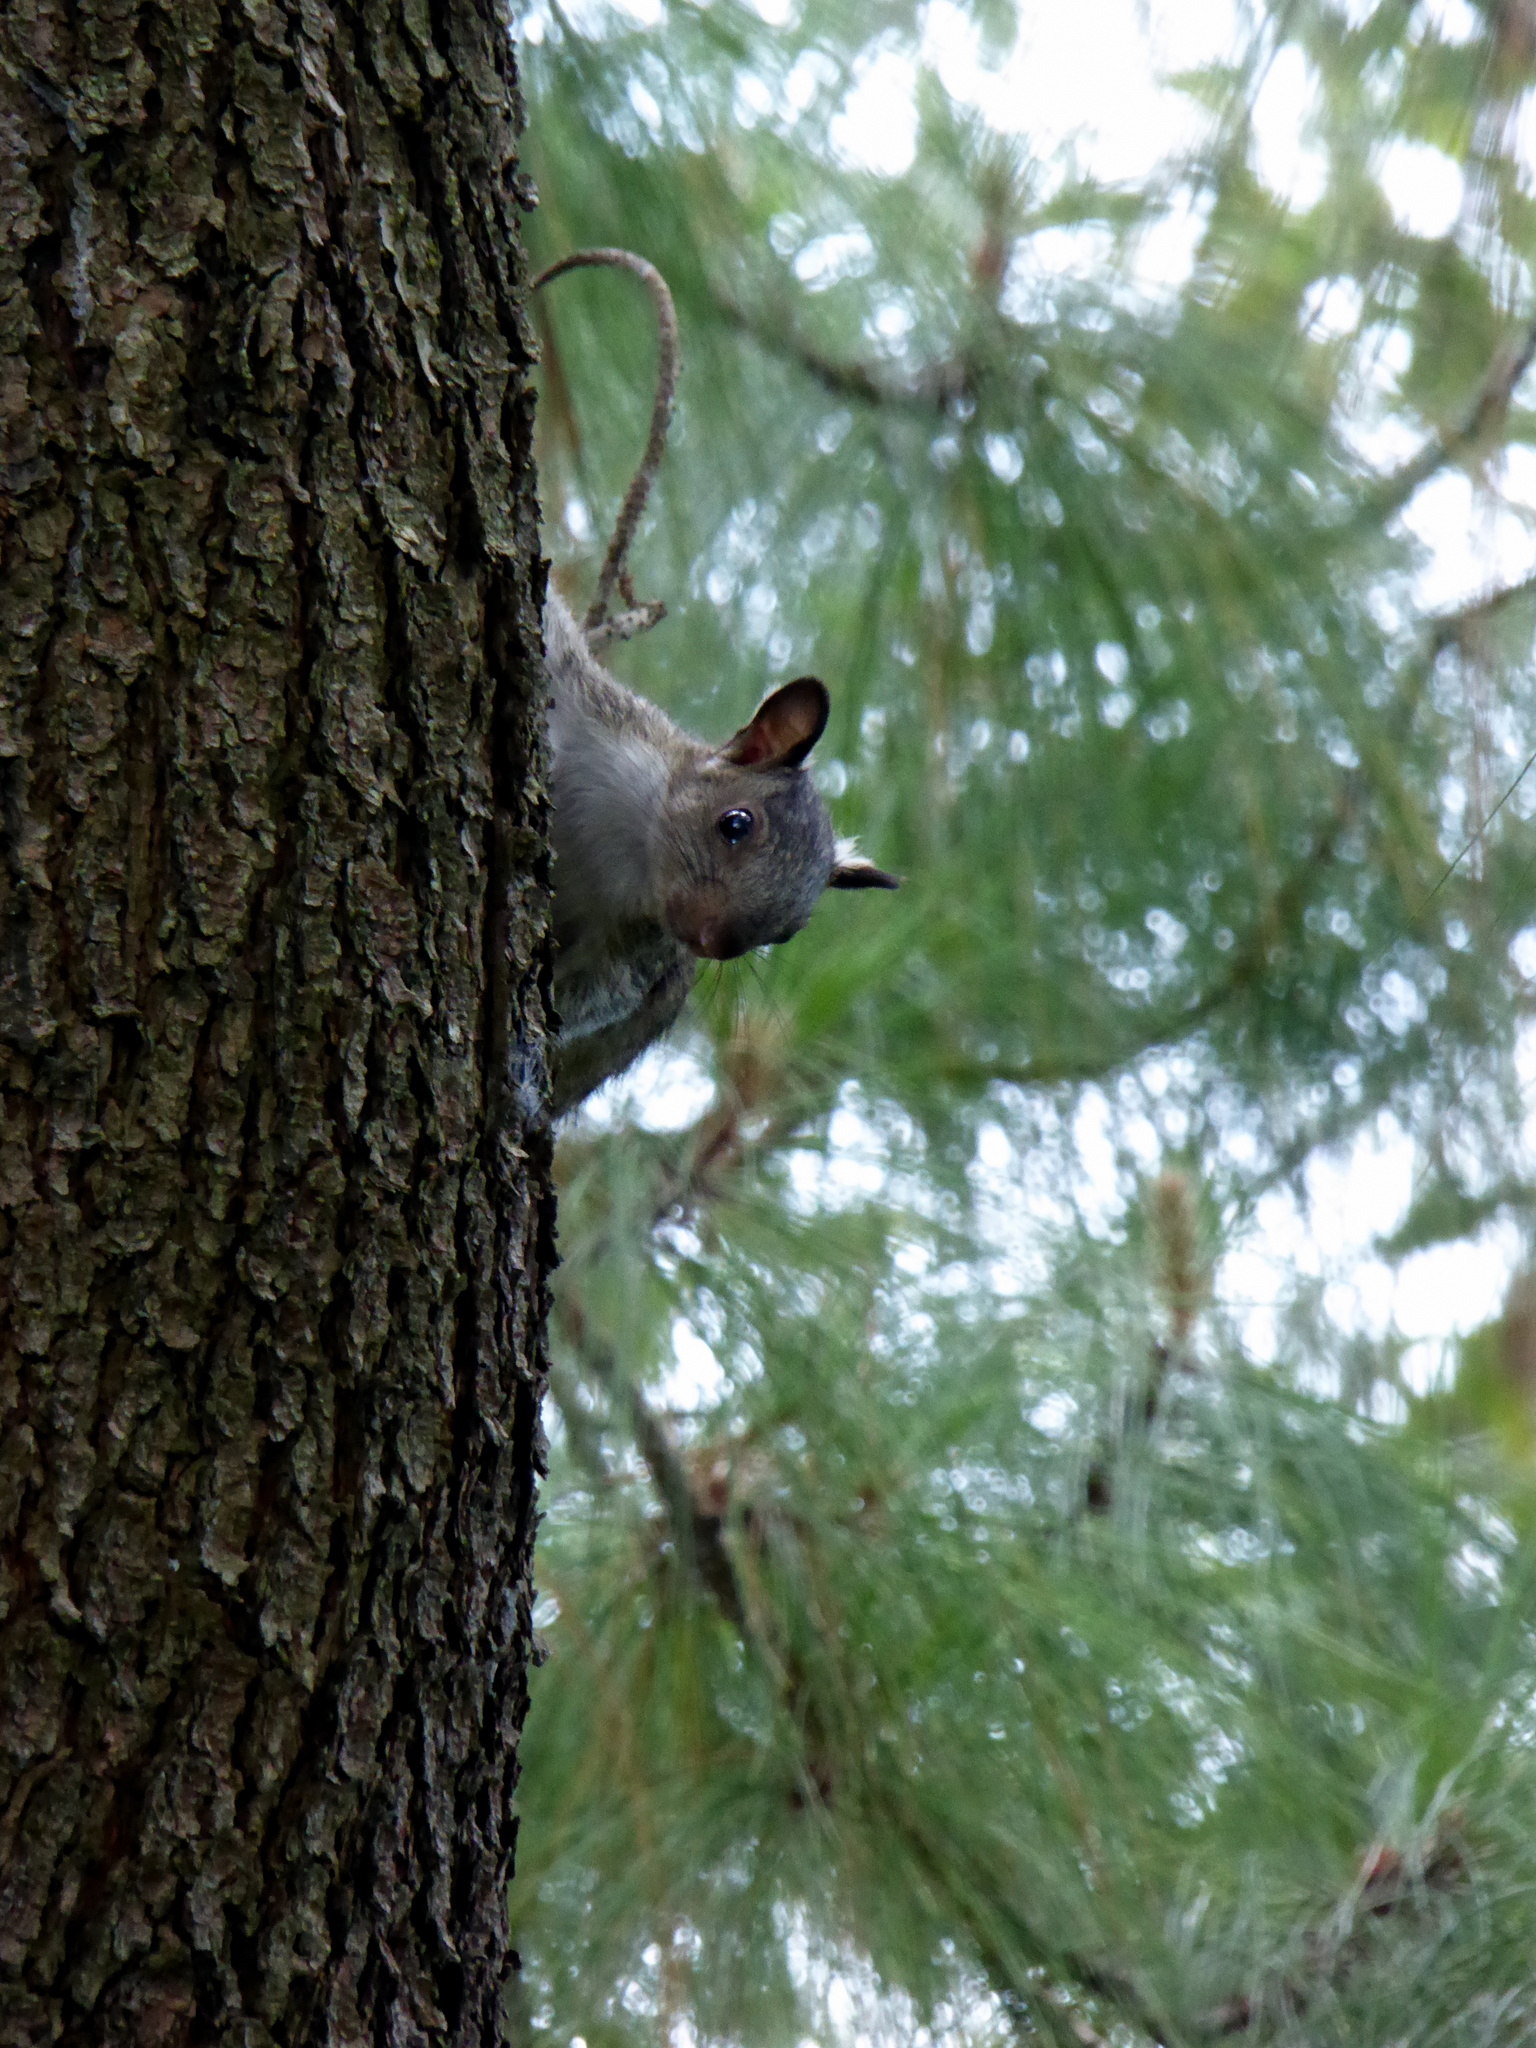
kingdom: Animalia
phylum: Chordata
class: Mammalia
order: Rodentia
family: Sciuridae
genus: Sciurus
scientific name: Sciurus variegatoides
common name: Variegated squirrel
